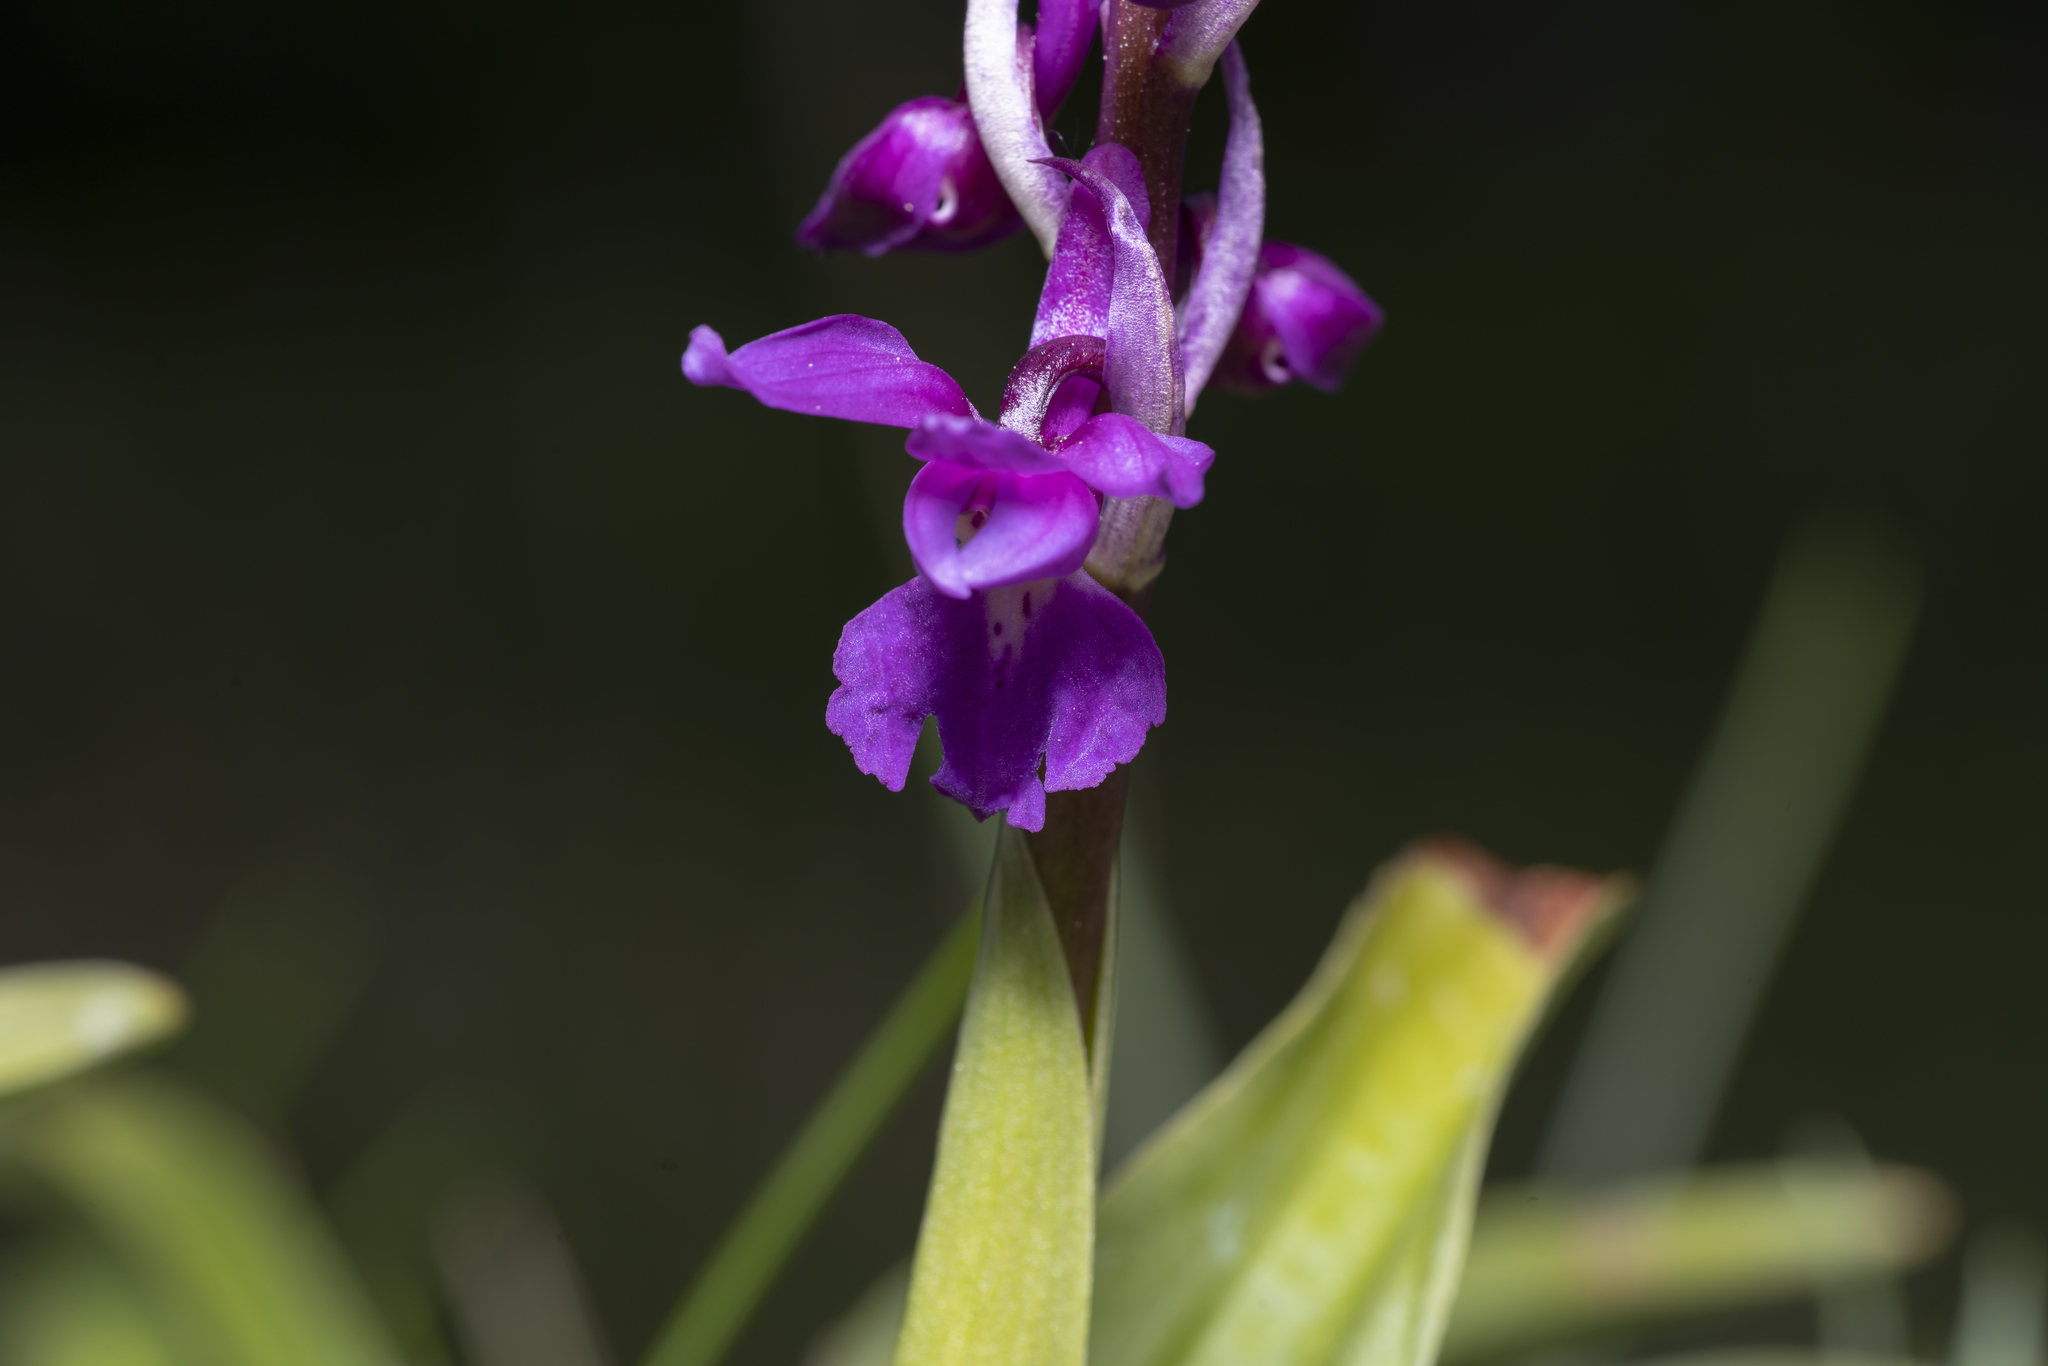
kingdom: Plantae
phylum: Tracheophyta
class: Liliopsida
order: Asparagales
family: Orchidaceae
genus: Orchis
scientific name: Orchis mascula
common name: Early-purple orchid
